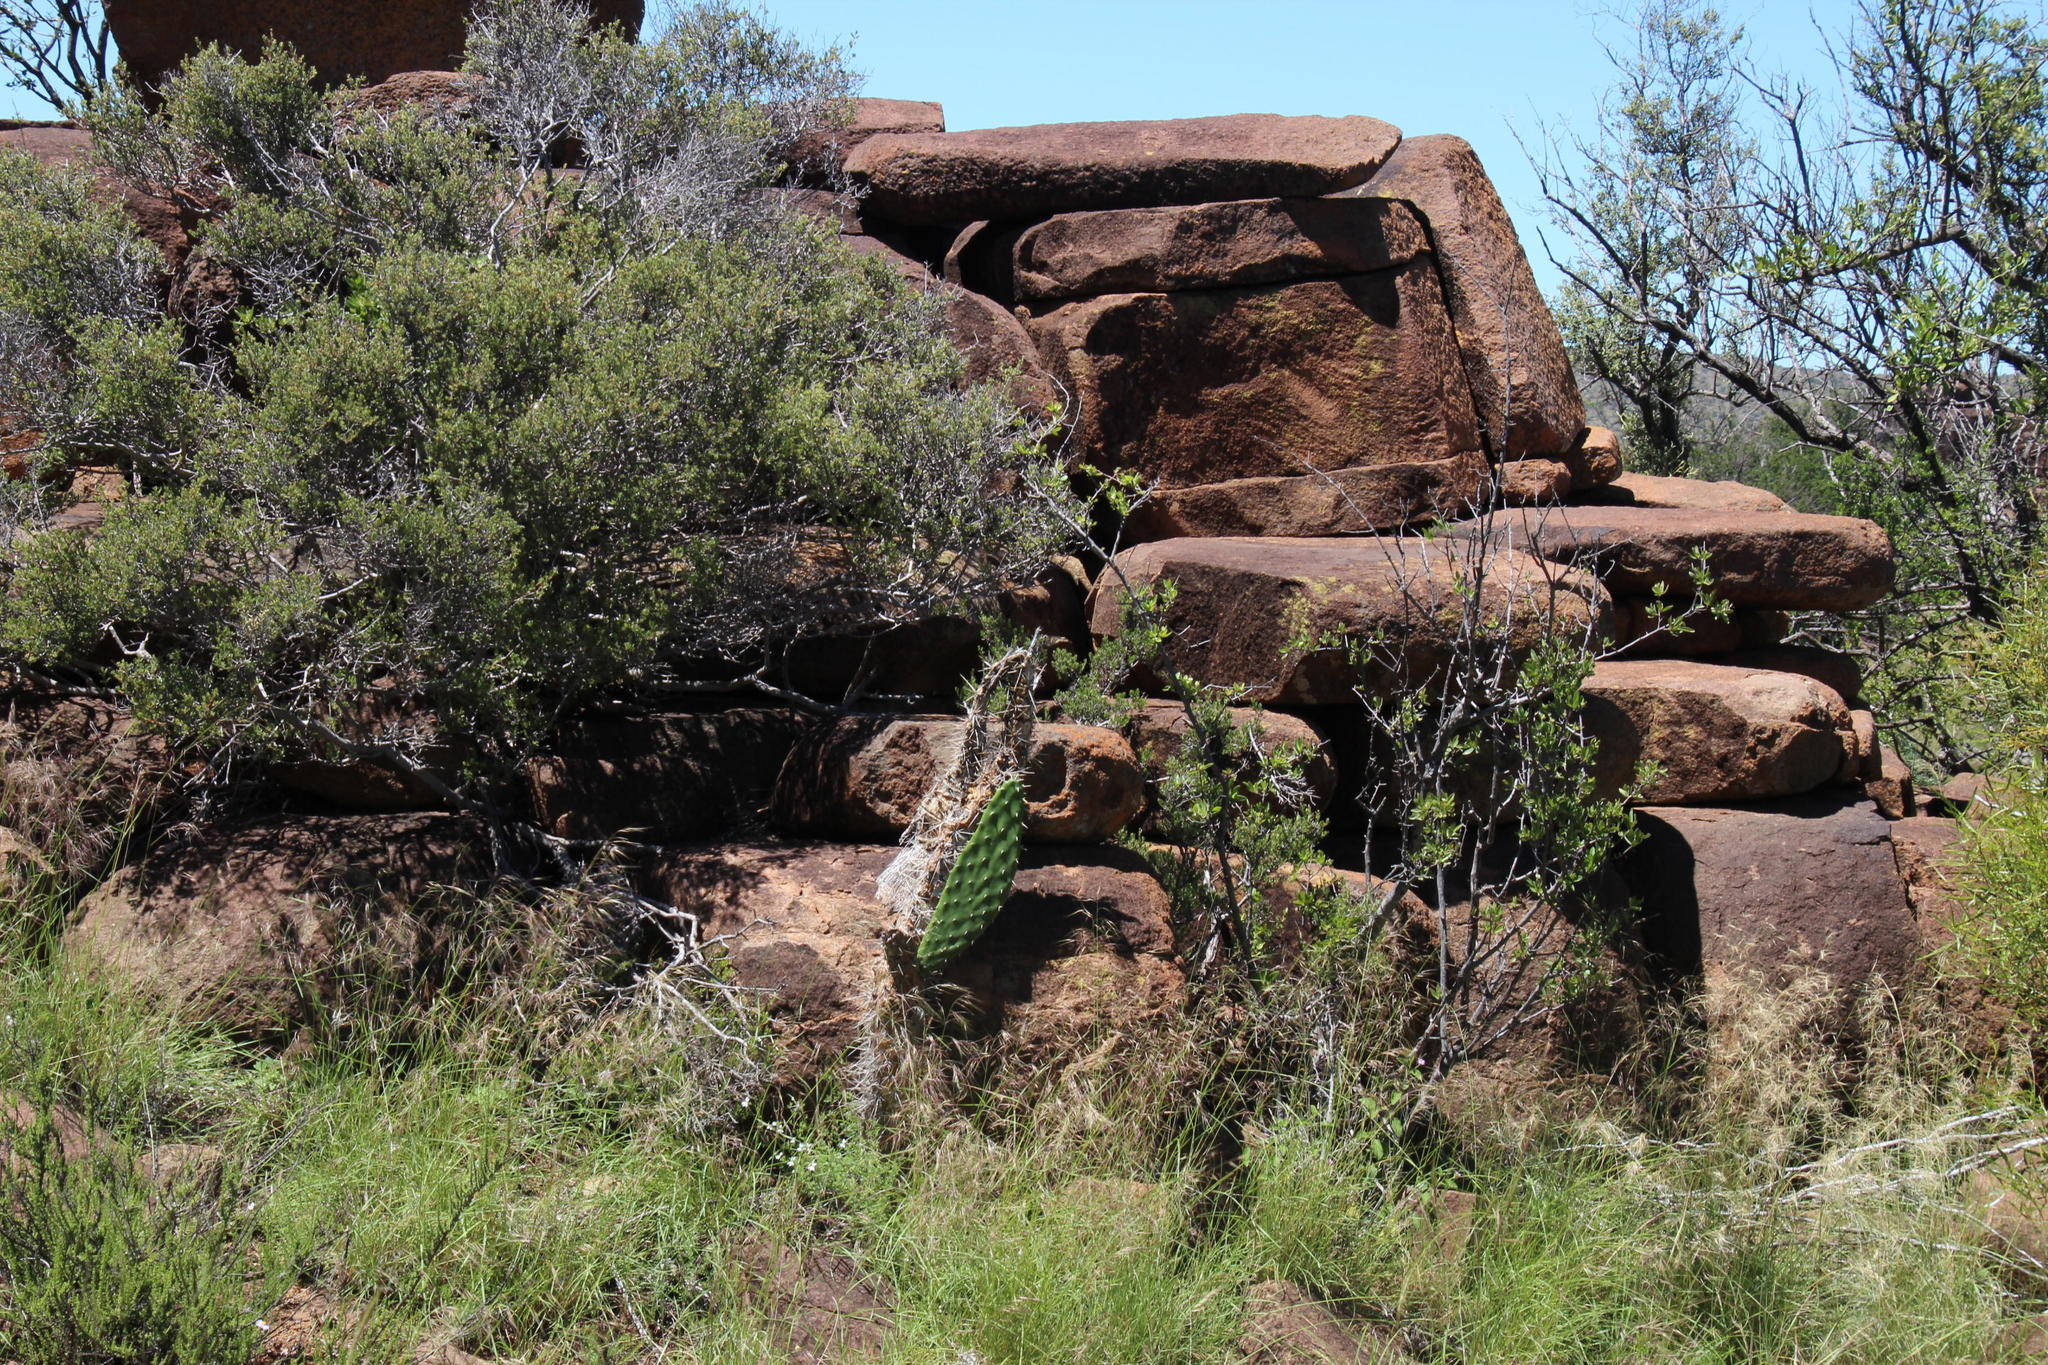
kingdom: Plantae
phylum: Tracheophyta
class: Magnoliopsida
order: Caryophyllales
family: Cactaceae
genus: Opuntia
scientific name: Opuntia ficus-indica
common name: Barbary fig
